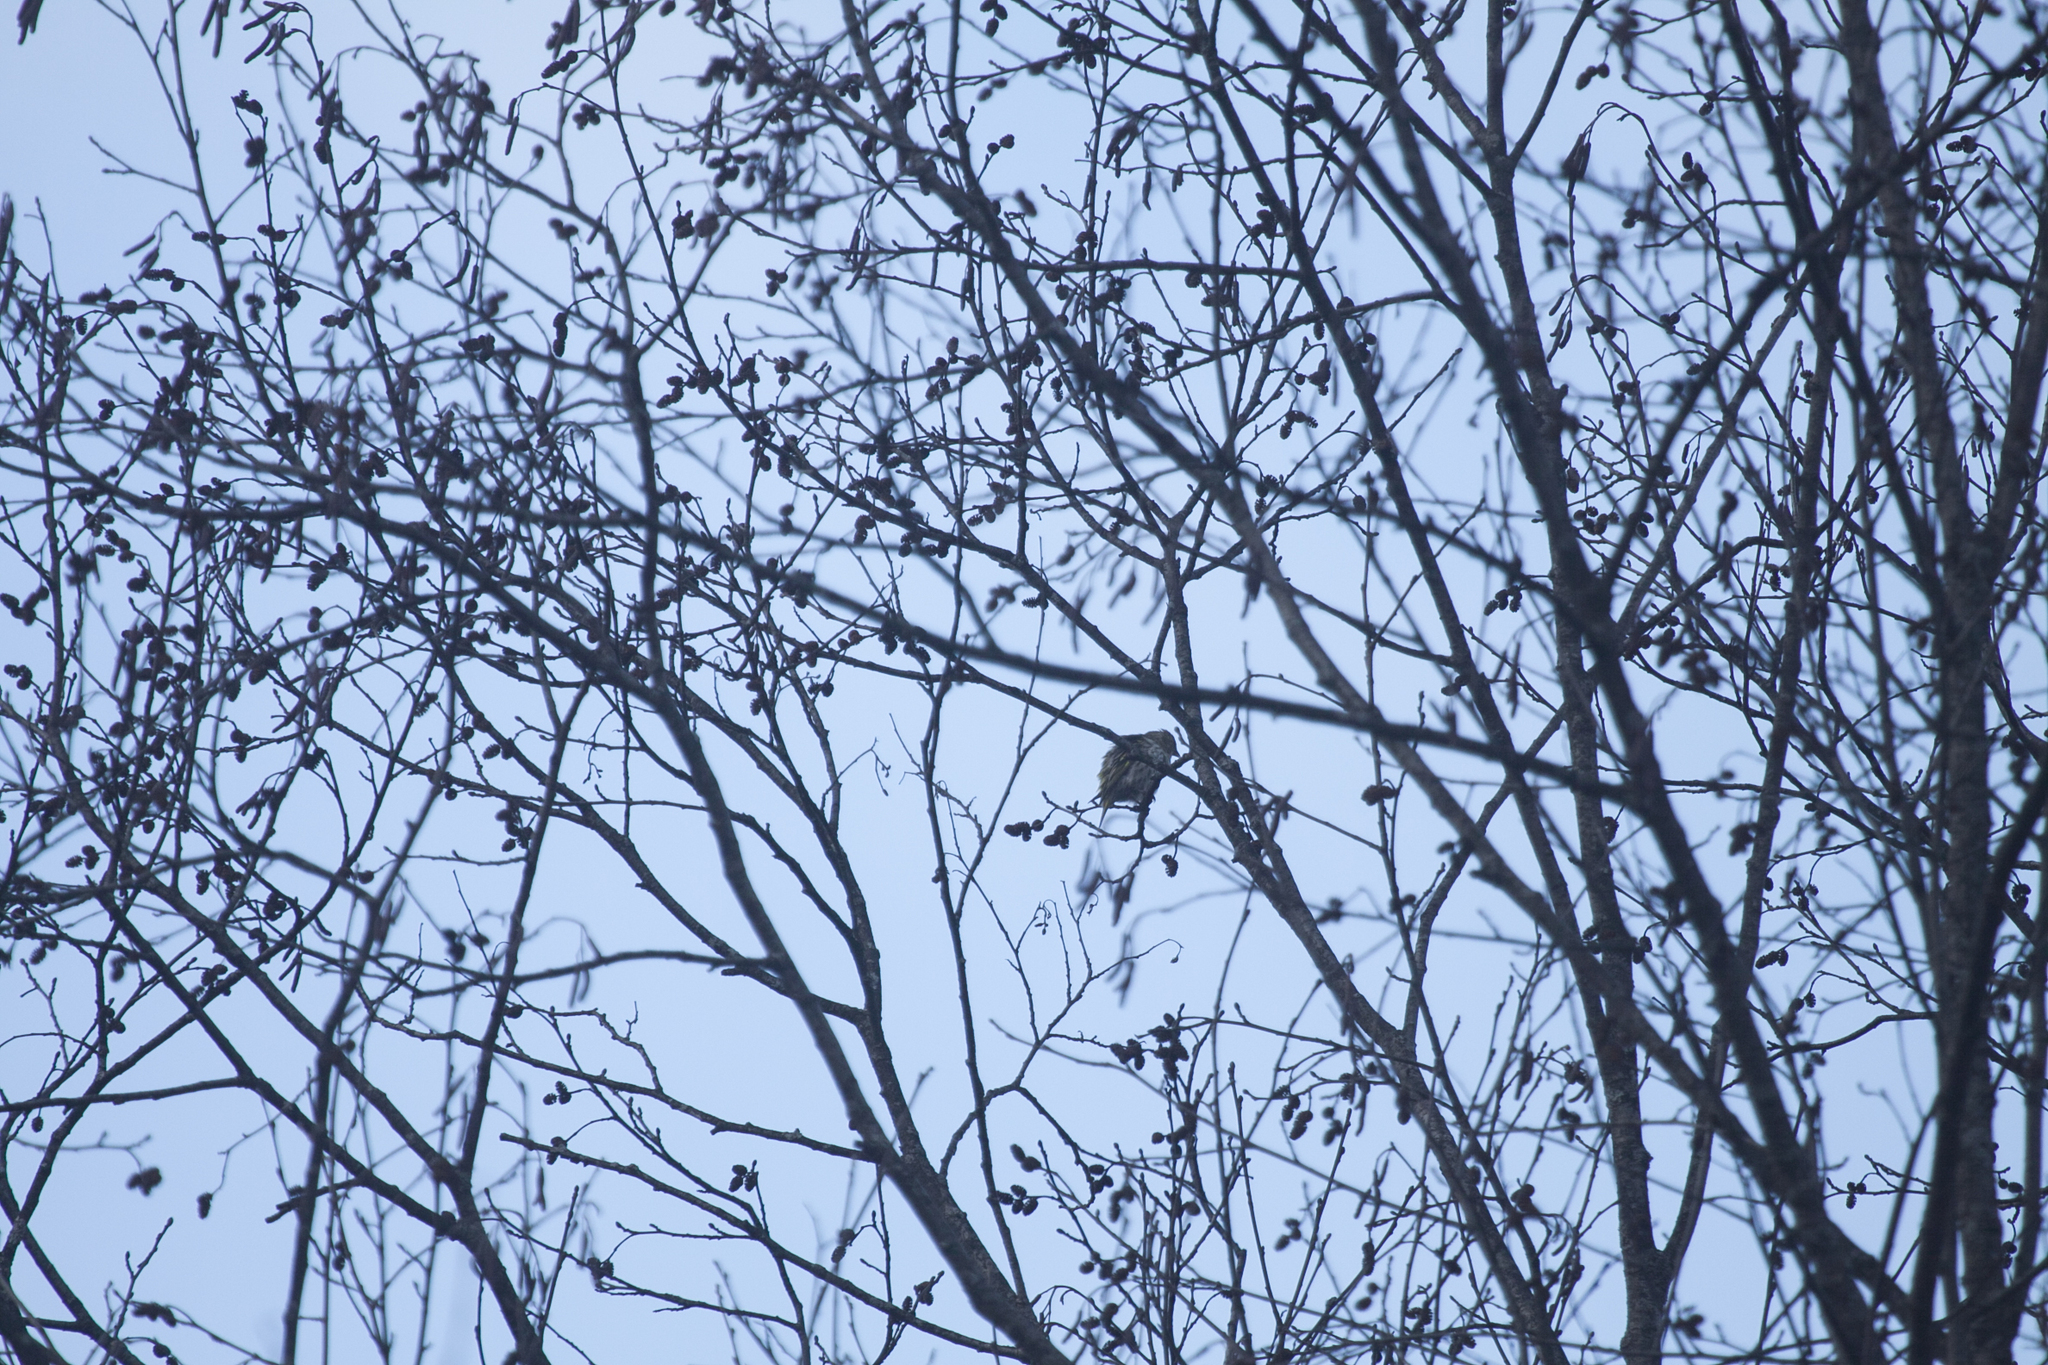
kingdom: Animalia
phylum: Chordata
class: Aves
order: Passeriformes
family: Fringillidae
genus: Spinus
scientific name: Spinus spinus
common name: Eurasian siskin
